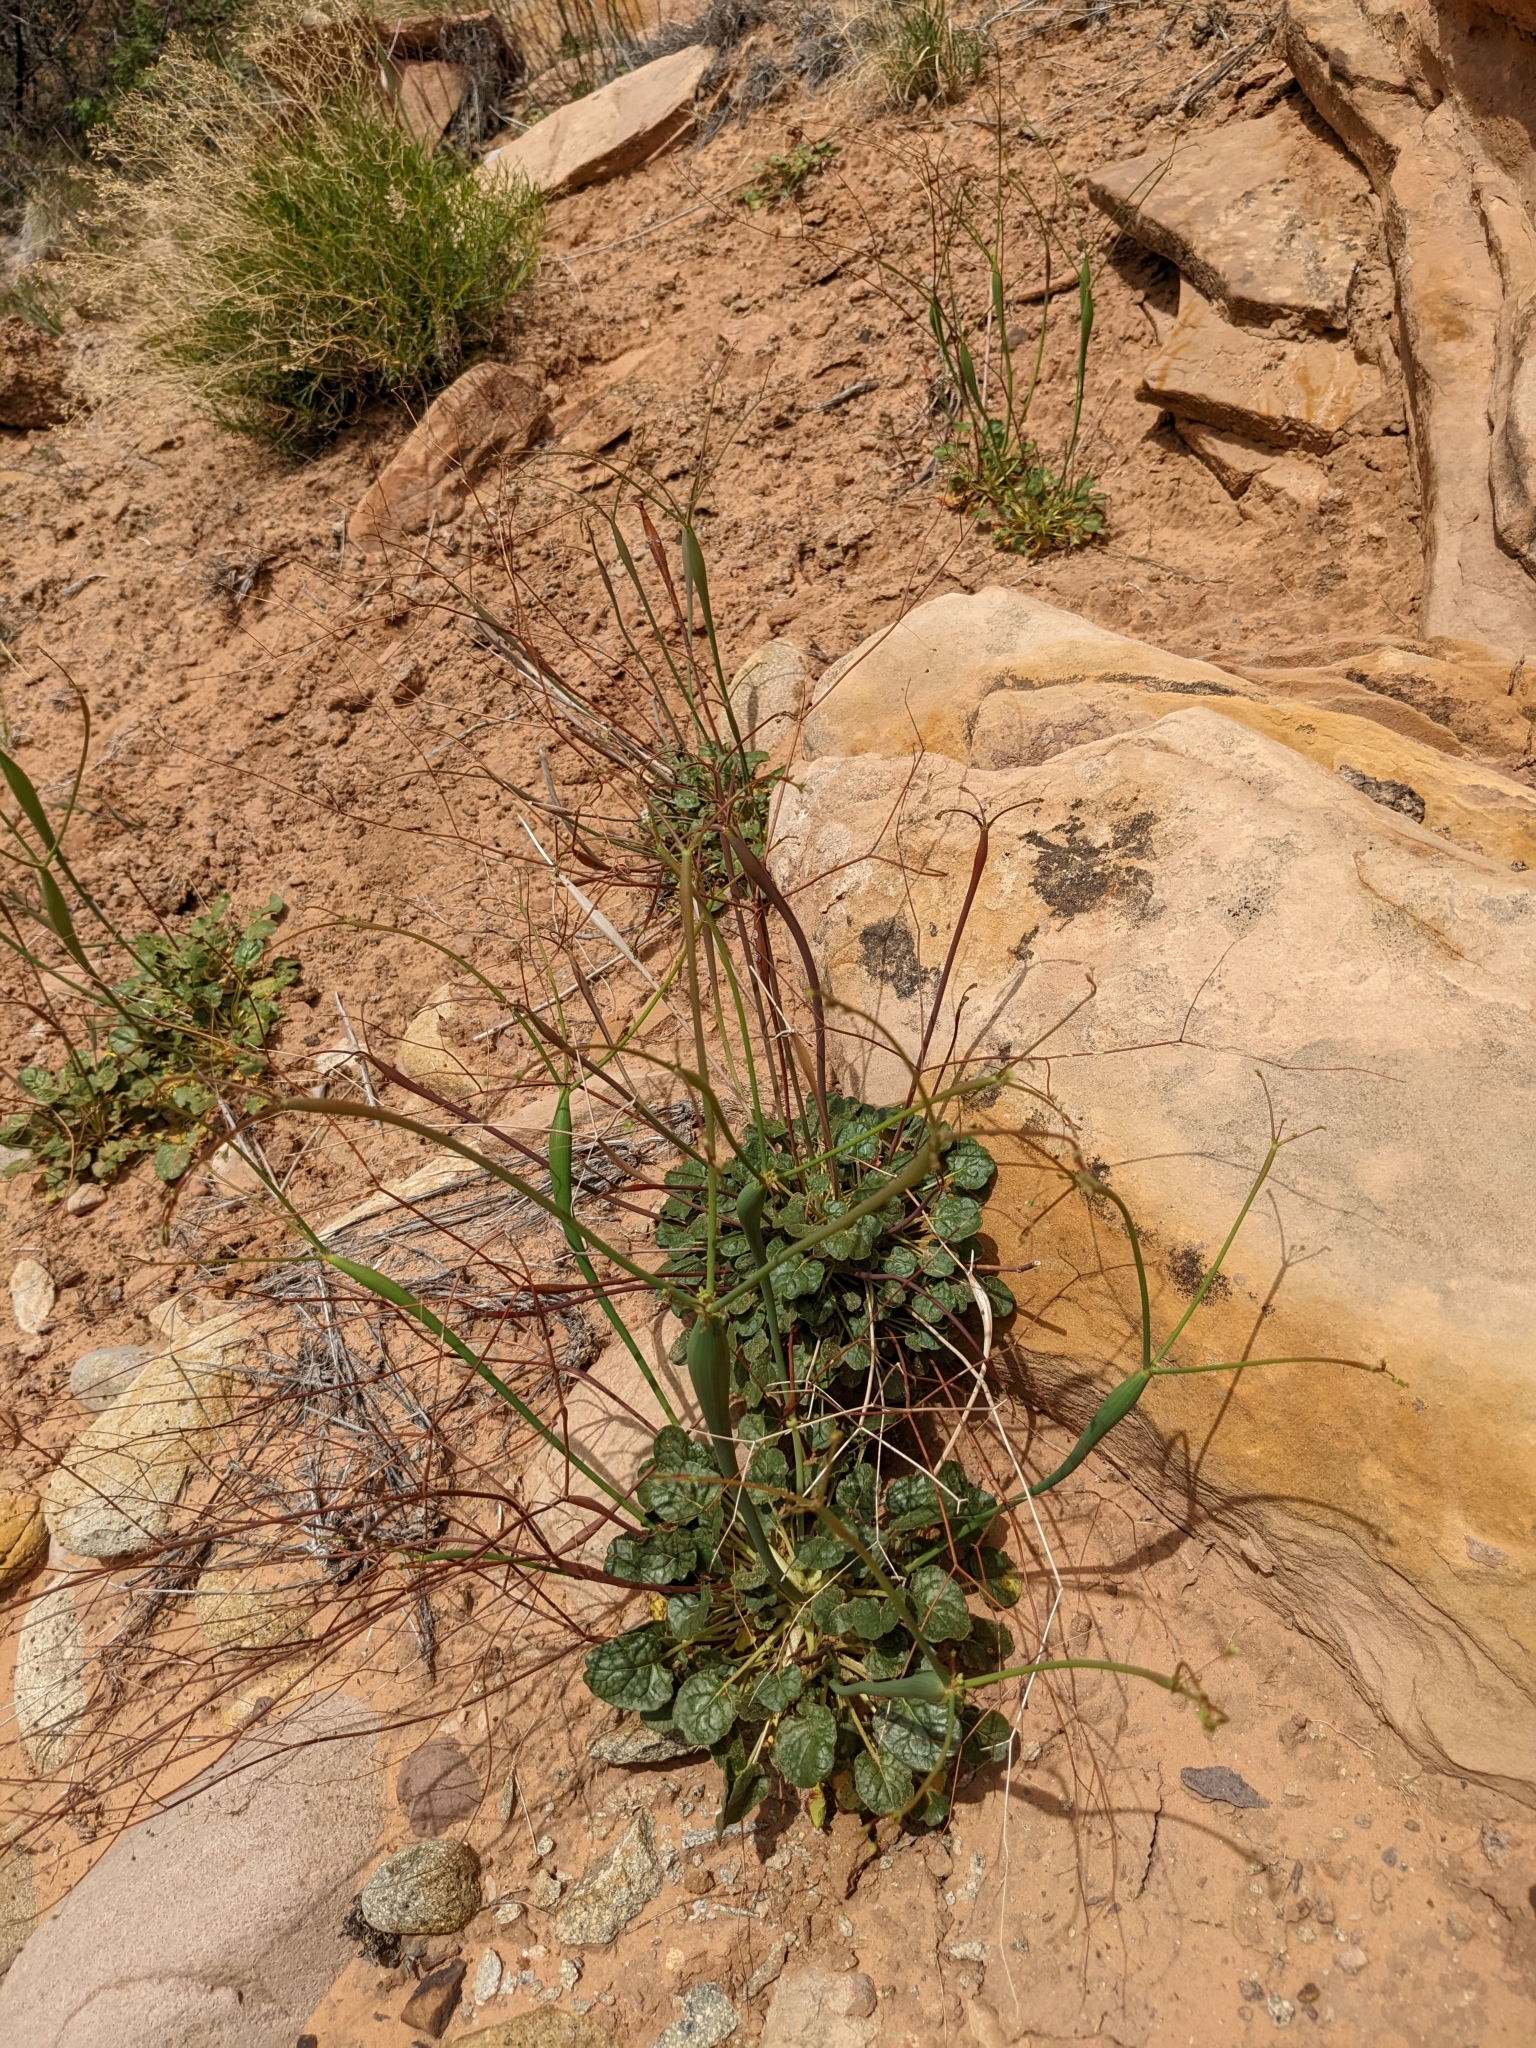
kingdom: Plantae
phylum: Tracheophyta
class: Magnoliopsida
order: Caryophyllales
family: Polygonaceae
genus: Eriogonum
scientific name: Eriogonum inflatum
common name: Desert trumpet
